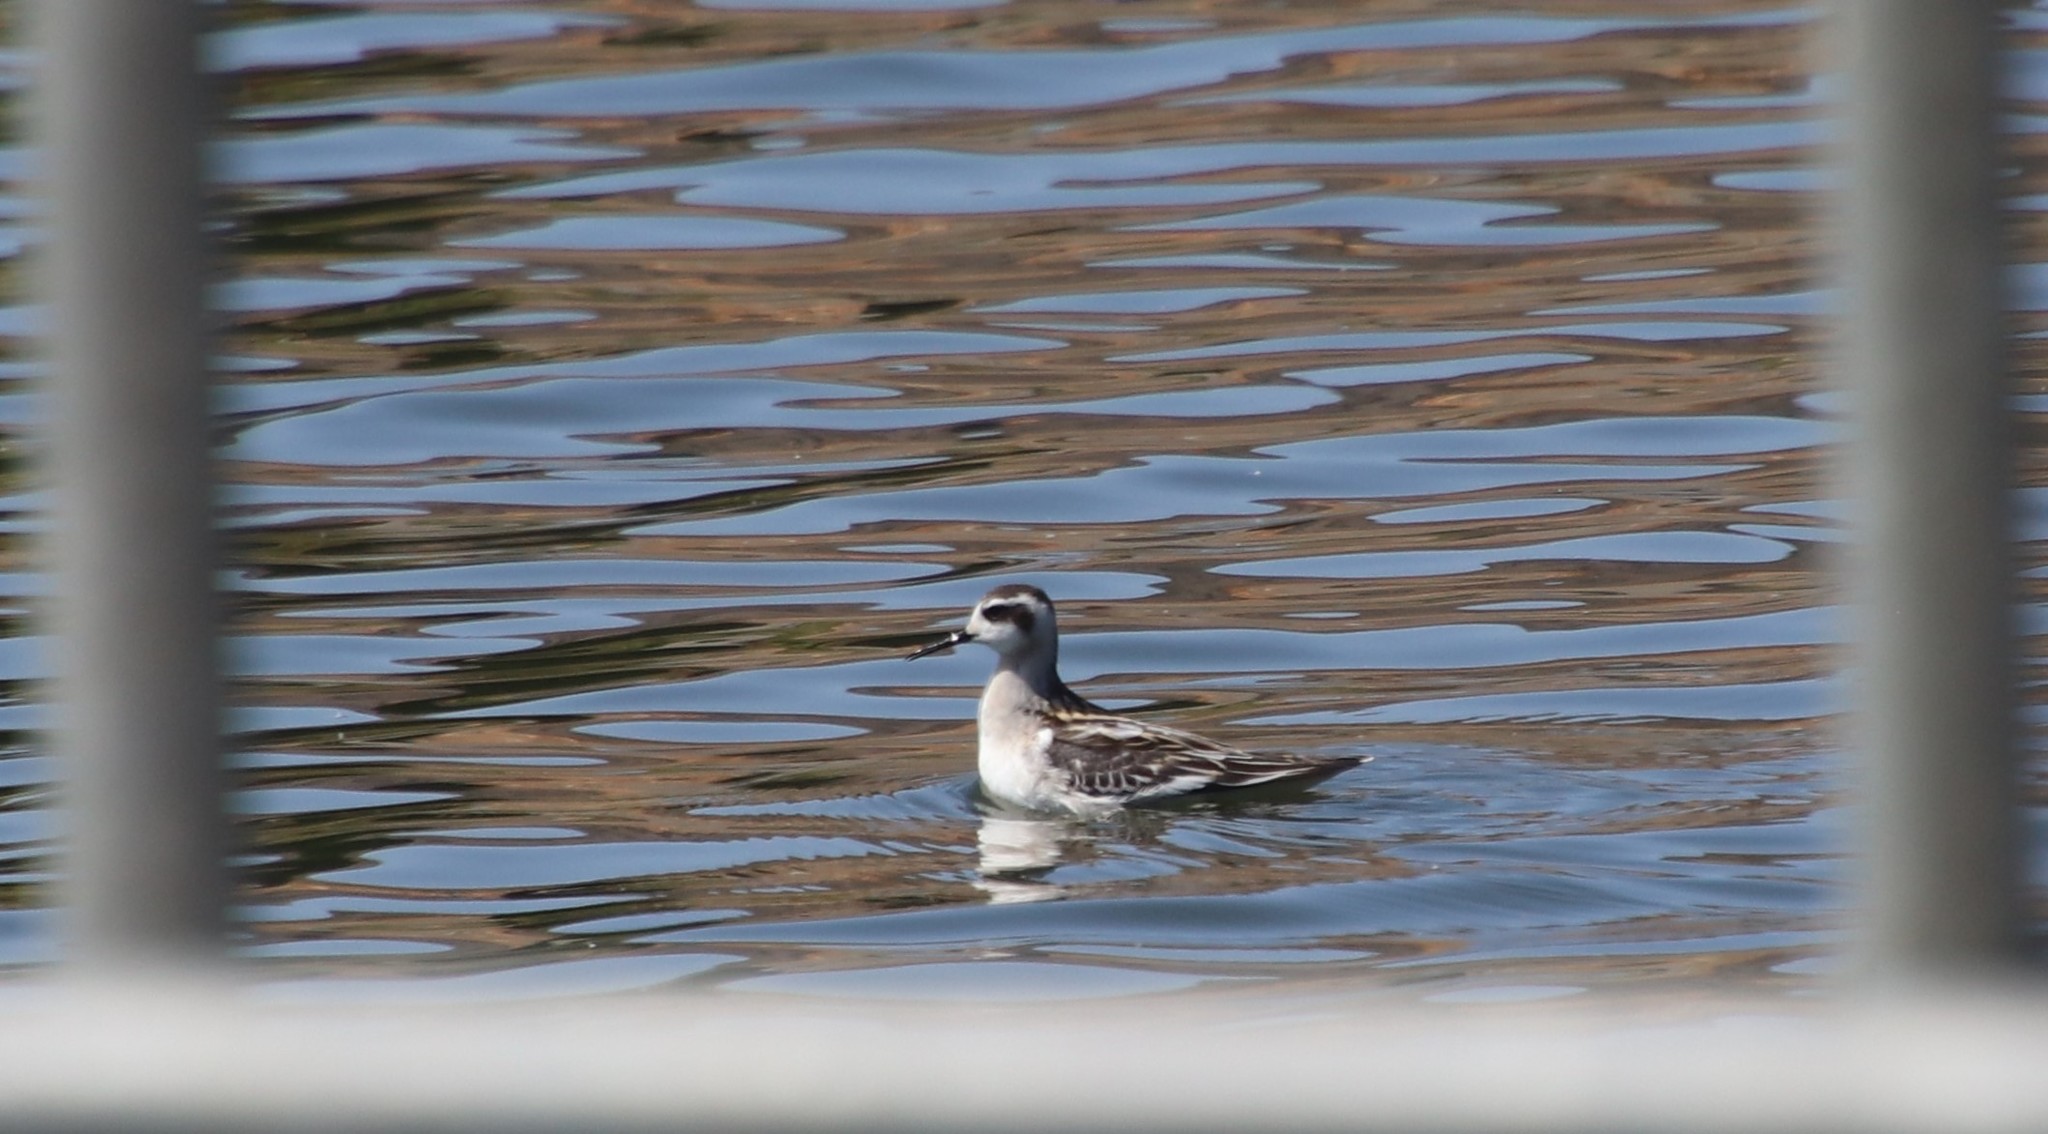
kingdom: Animalia
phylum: Chordata
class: Aves
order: Charadriiformes
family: Scolopacidae
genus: Phalaropus
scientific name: Phalaropus lobatus
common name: Red-necked phalarope
